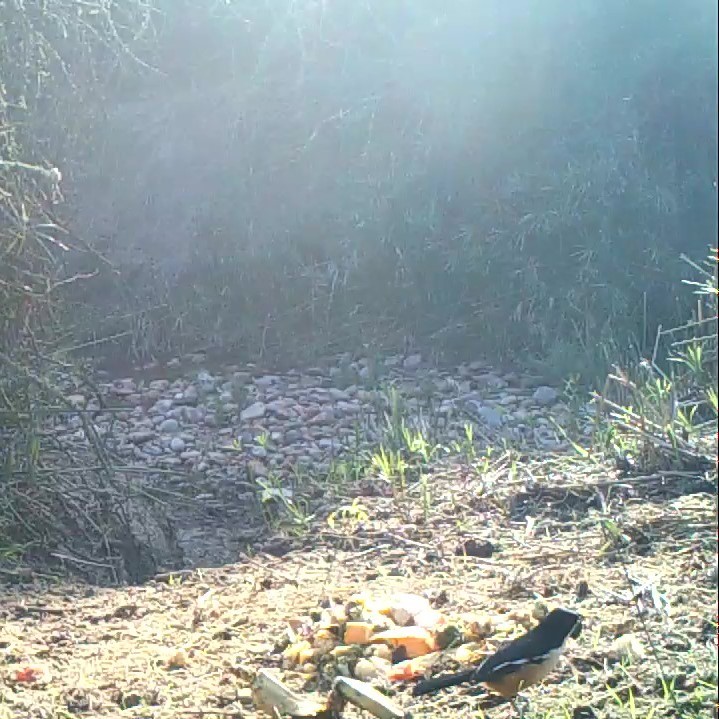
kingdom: Animalia
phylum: Chordata
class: Aves
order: Passeriformes
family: Malaconotidae
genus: Laniarius
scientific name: Laniarius ferrugineus
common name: Southern boubou
